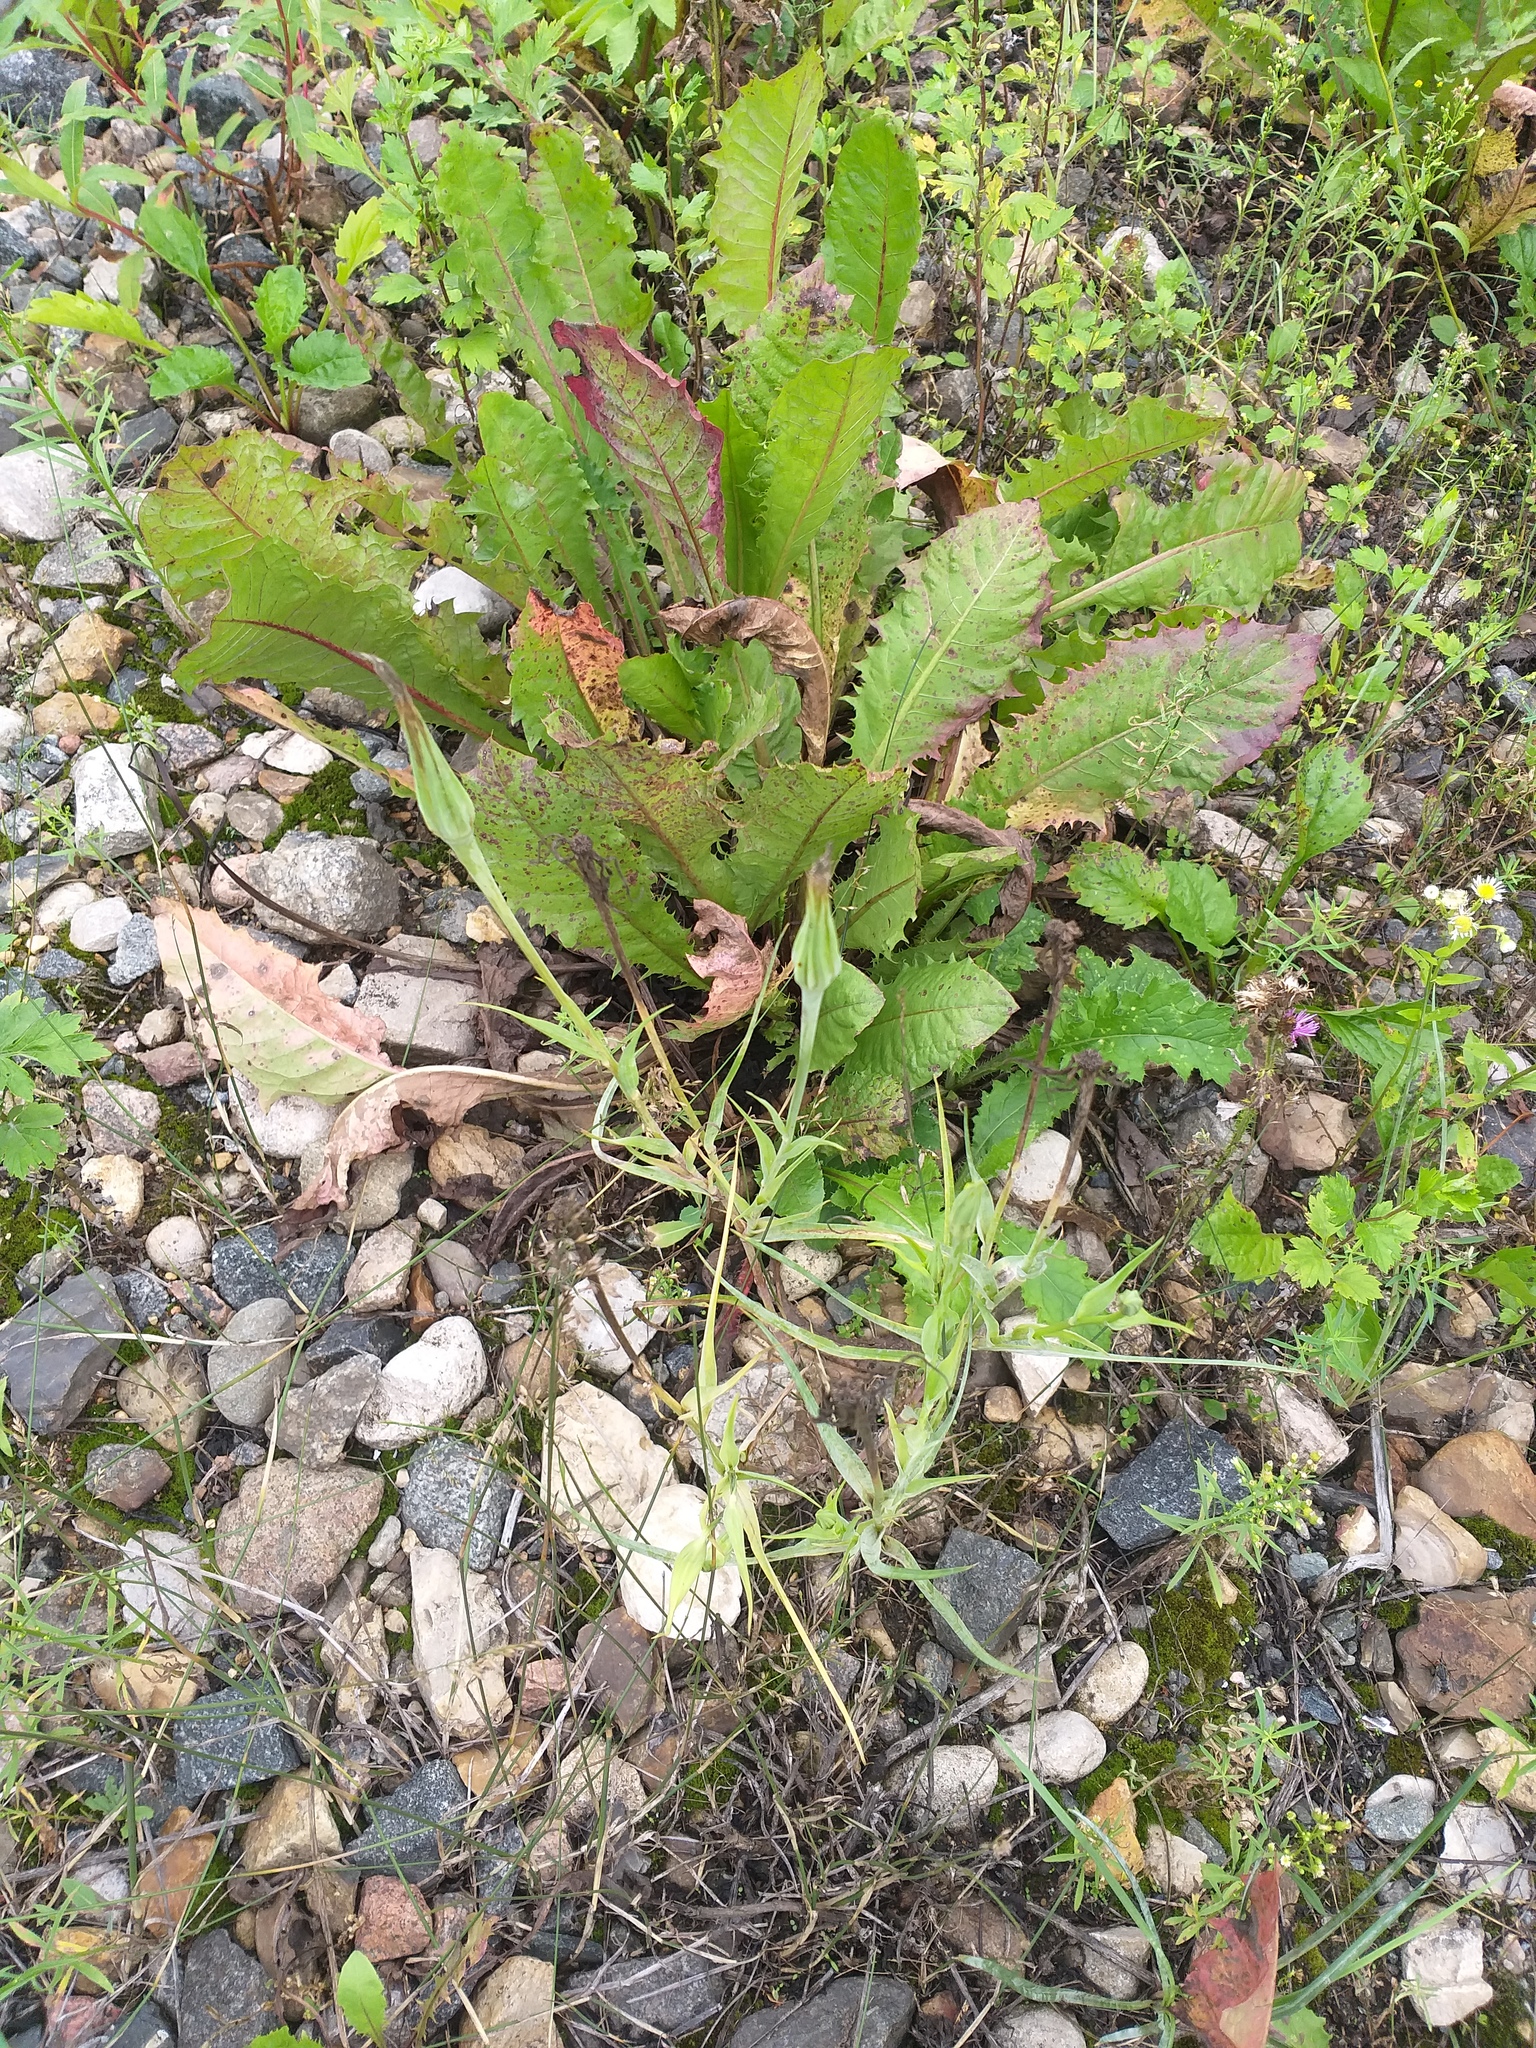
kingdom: Plantae
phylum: Tracheophyta
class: Magnoliopsida
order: Asterales
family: Asteraceae
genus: Tragopogon
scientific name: Tragopogon dubius
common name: Yellow salsify
